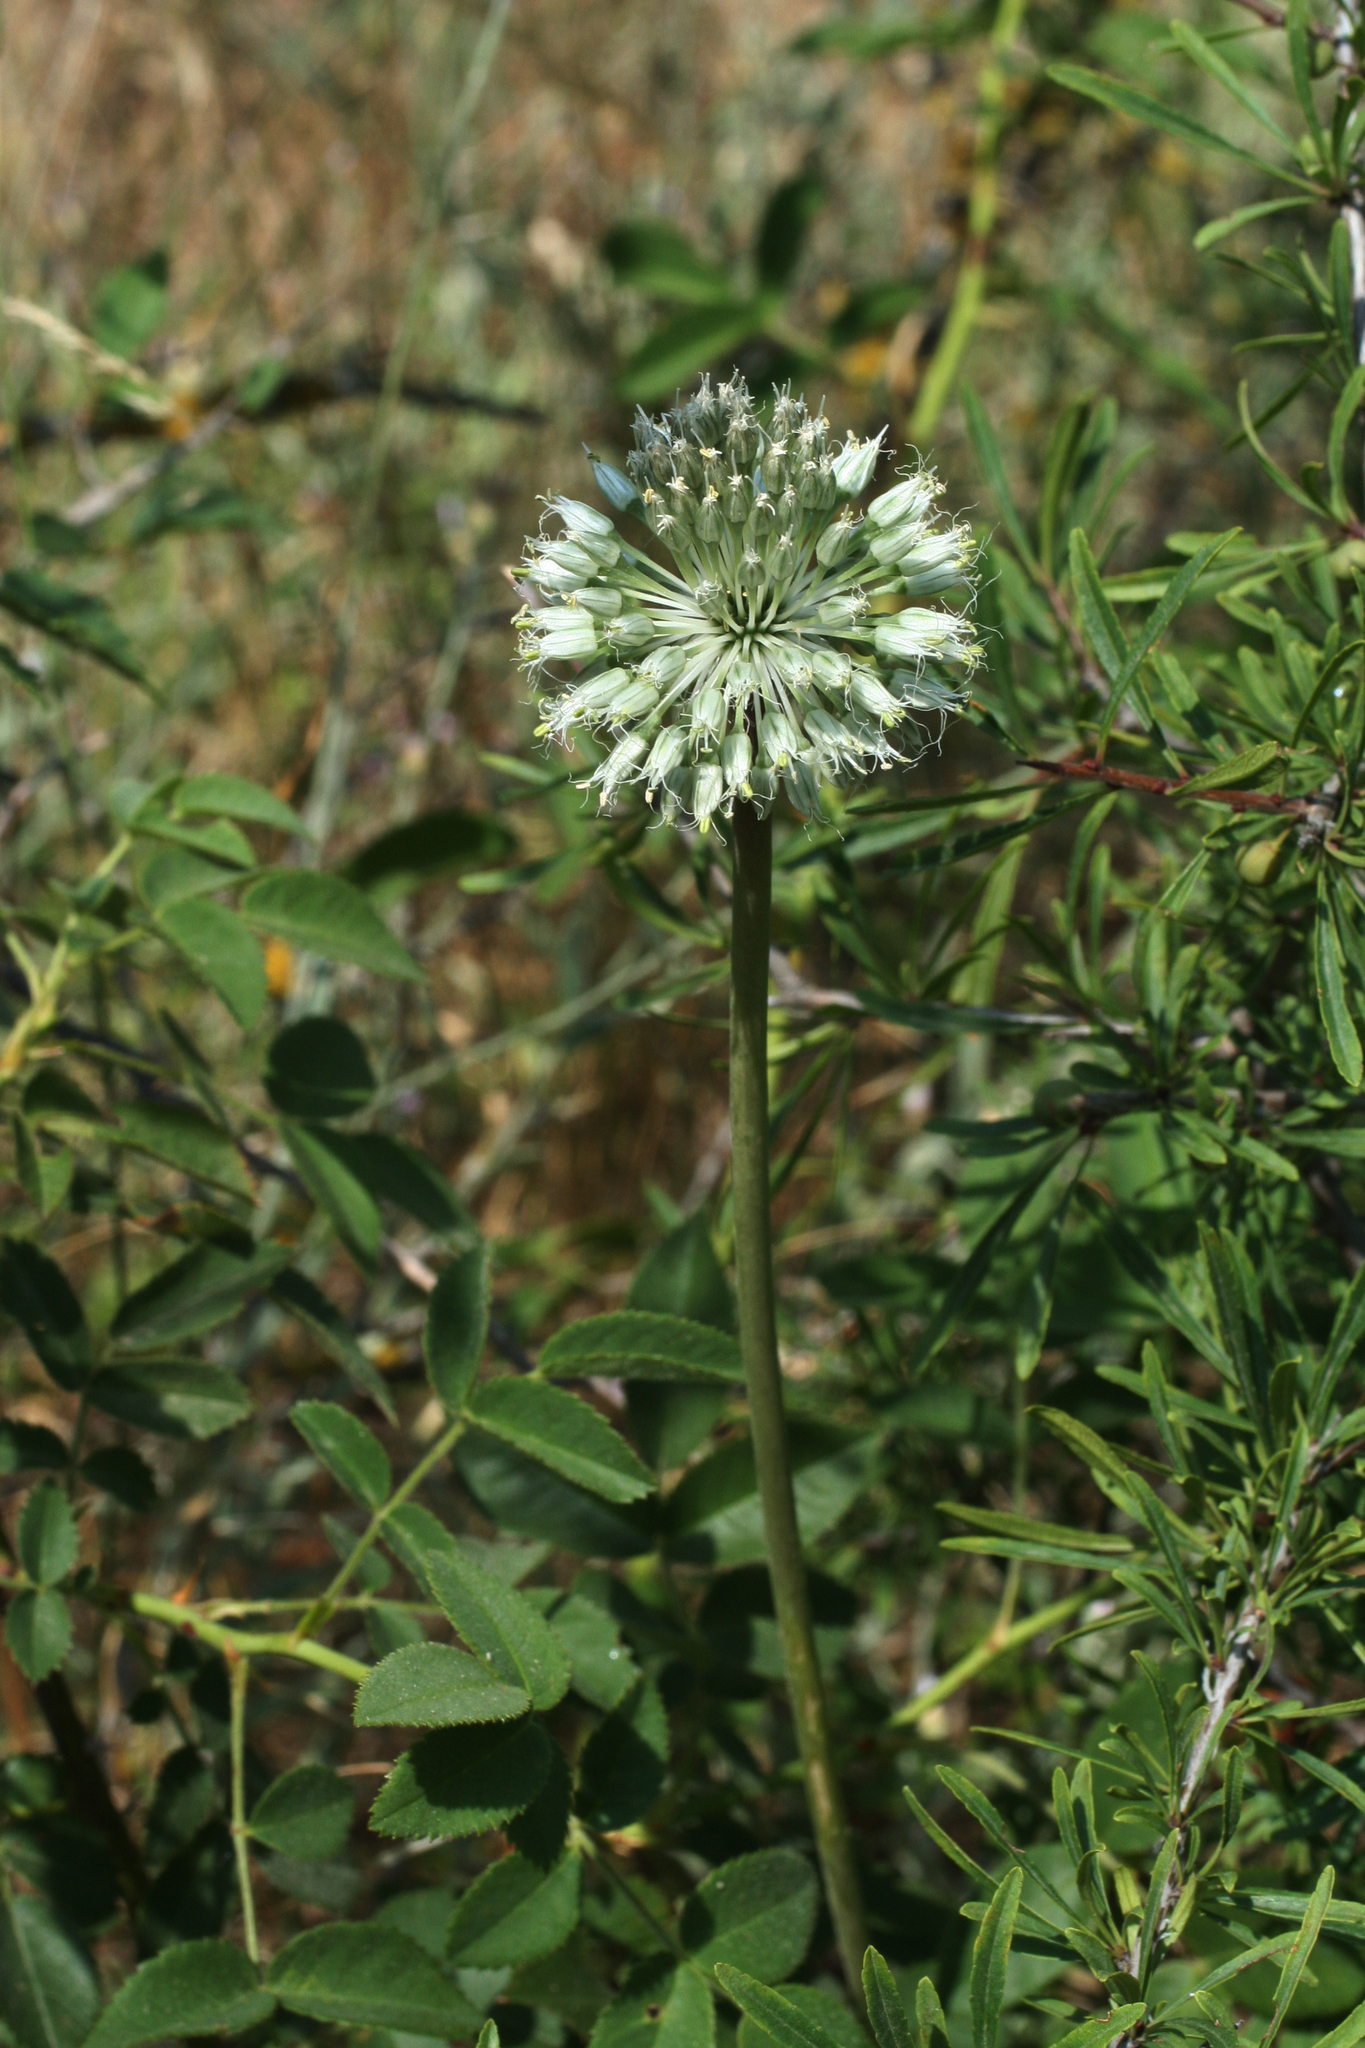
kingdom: Plantae
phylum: Tracheophyta
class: Liliopsida
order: Asparagales
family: Amaryllidaceae
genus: Allium
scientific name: Allium affine
